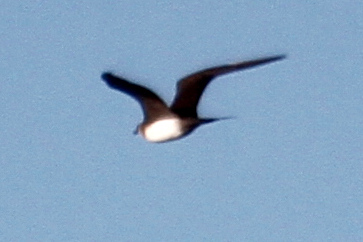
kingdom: Animalia
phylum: Chordata
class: Aves
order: Charadriiformes
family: Stercorariidae
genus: Stercorarius
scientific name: Stercorarius parasiticus
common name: Parasitic jaeger
